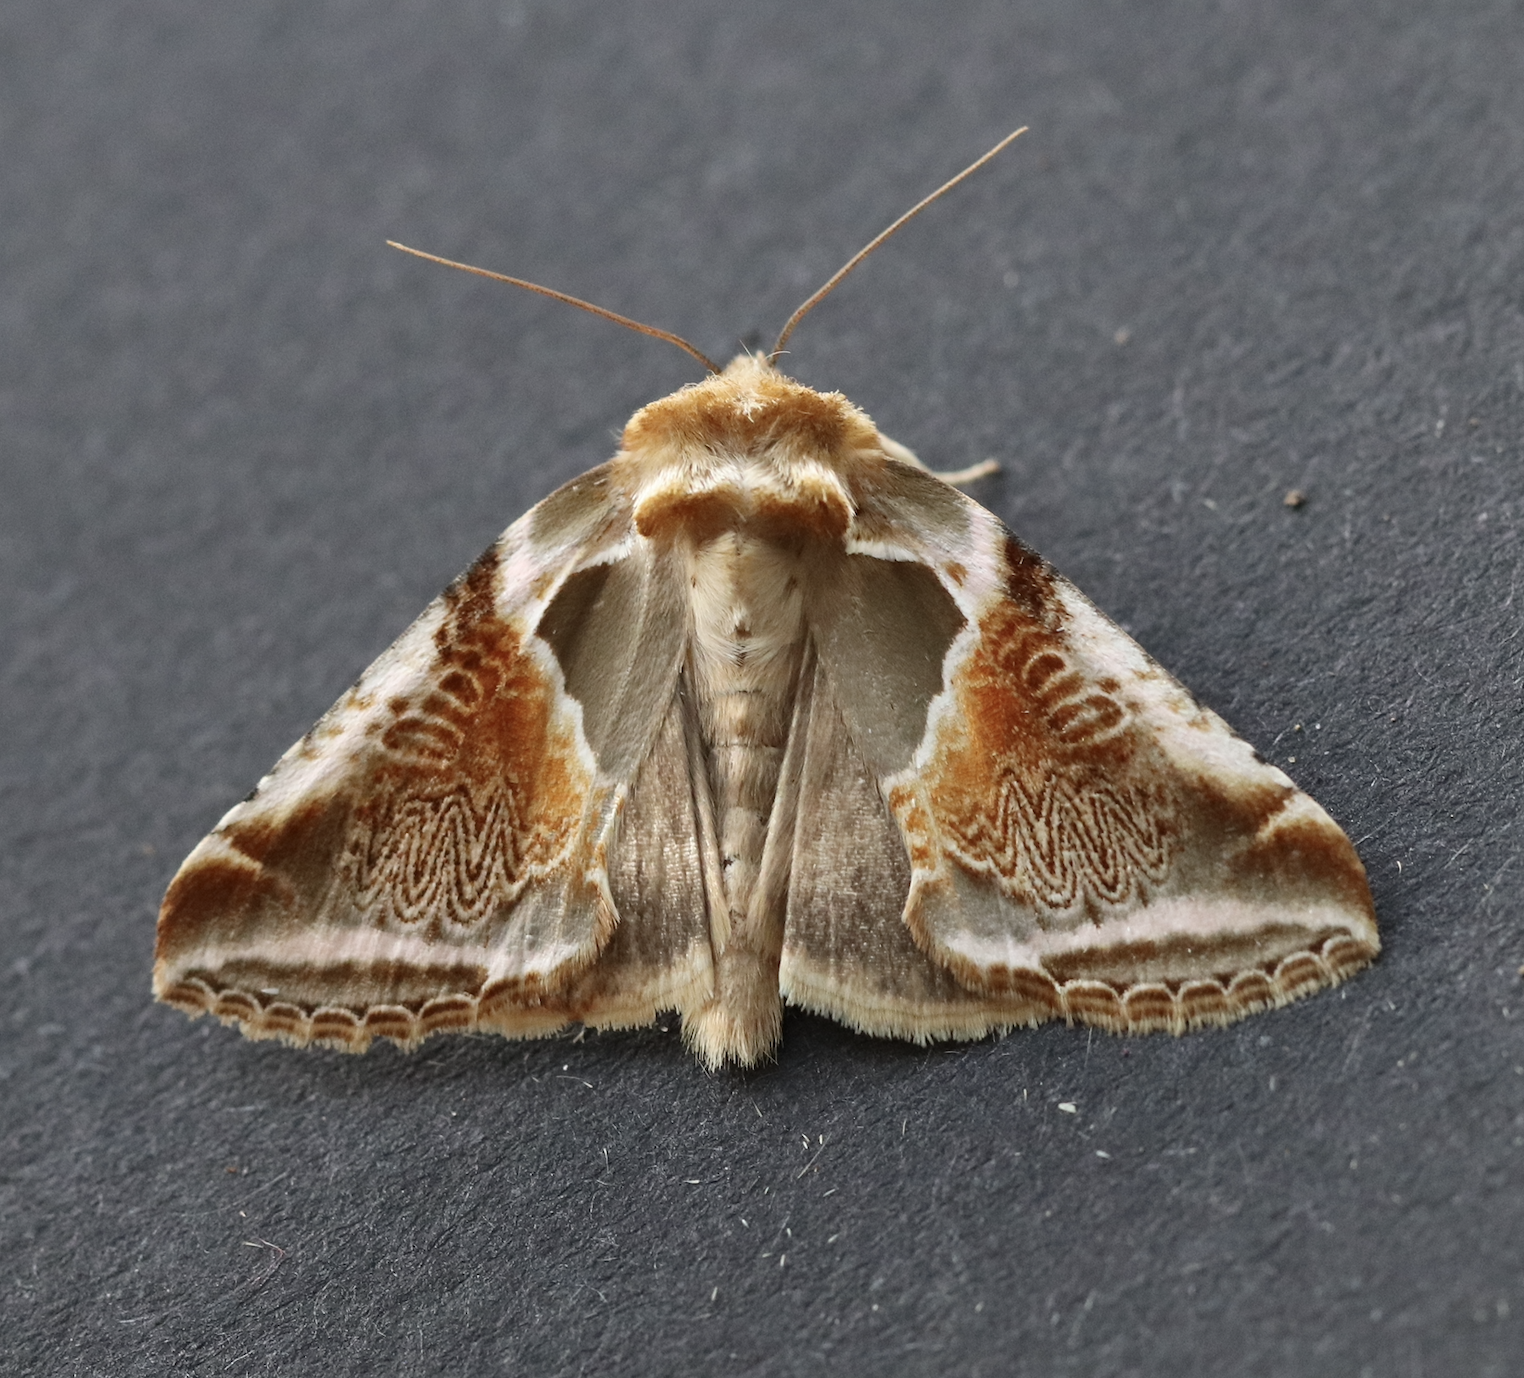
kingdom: Animalia
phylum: Arthropoda
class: Insecta
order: Lepidoptera
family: Drepanidae
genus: Habrosyne
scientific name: Habrosyne pyritoides
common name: Buff arches
